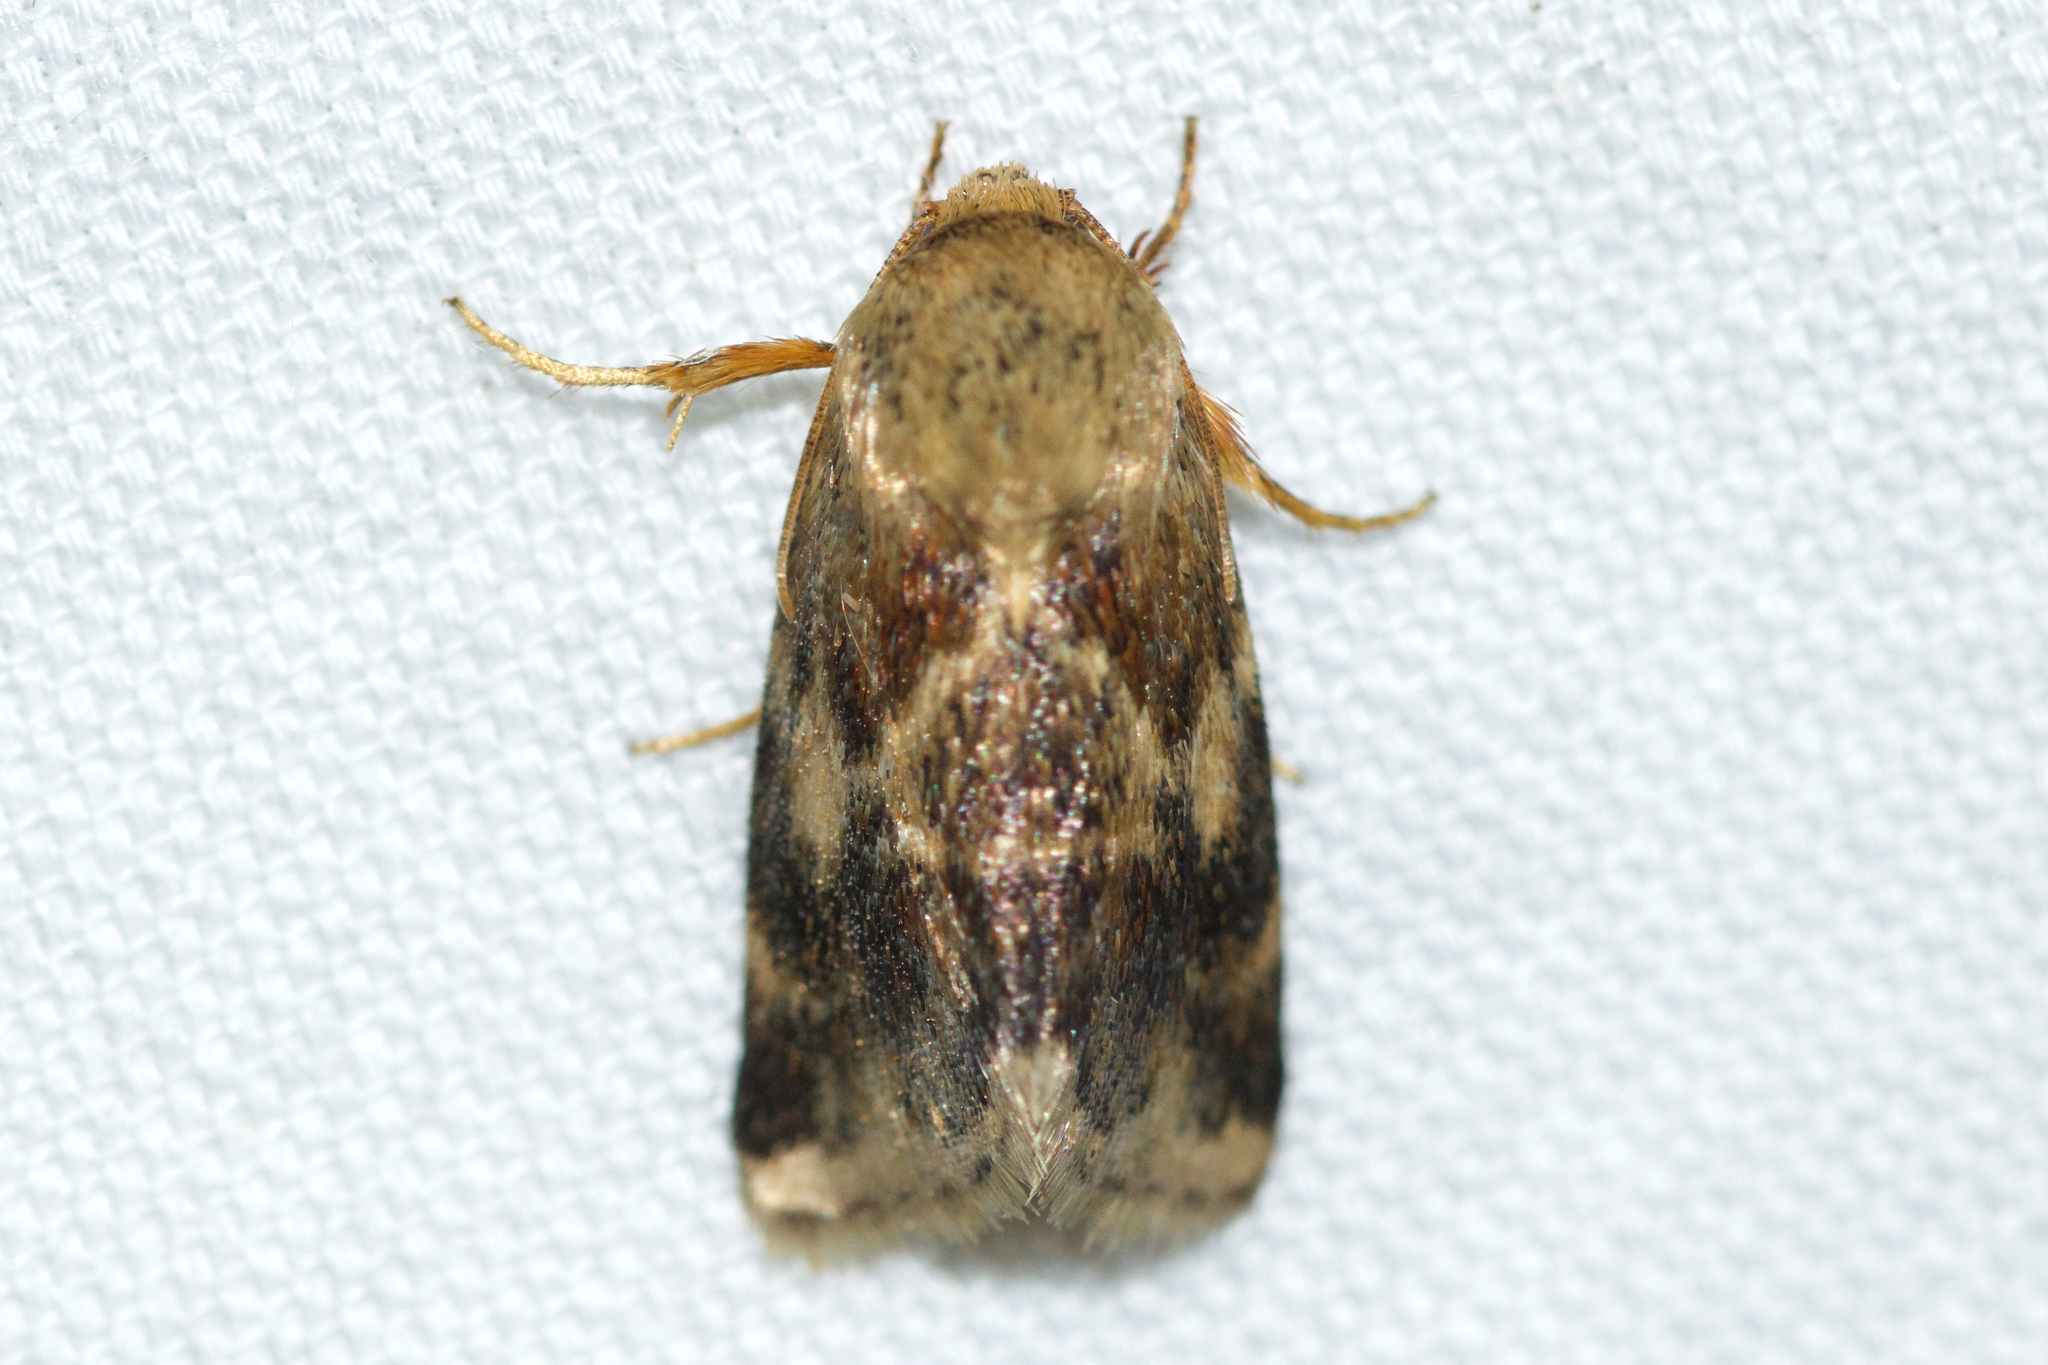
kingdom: Animalia
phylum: Arthropoda
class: Insecta
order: Lepidoptera
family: Noctuidae
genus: Schinia
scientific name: Schinia lynx
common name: Lynx flower moth
